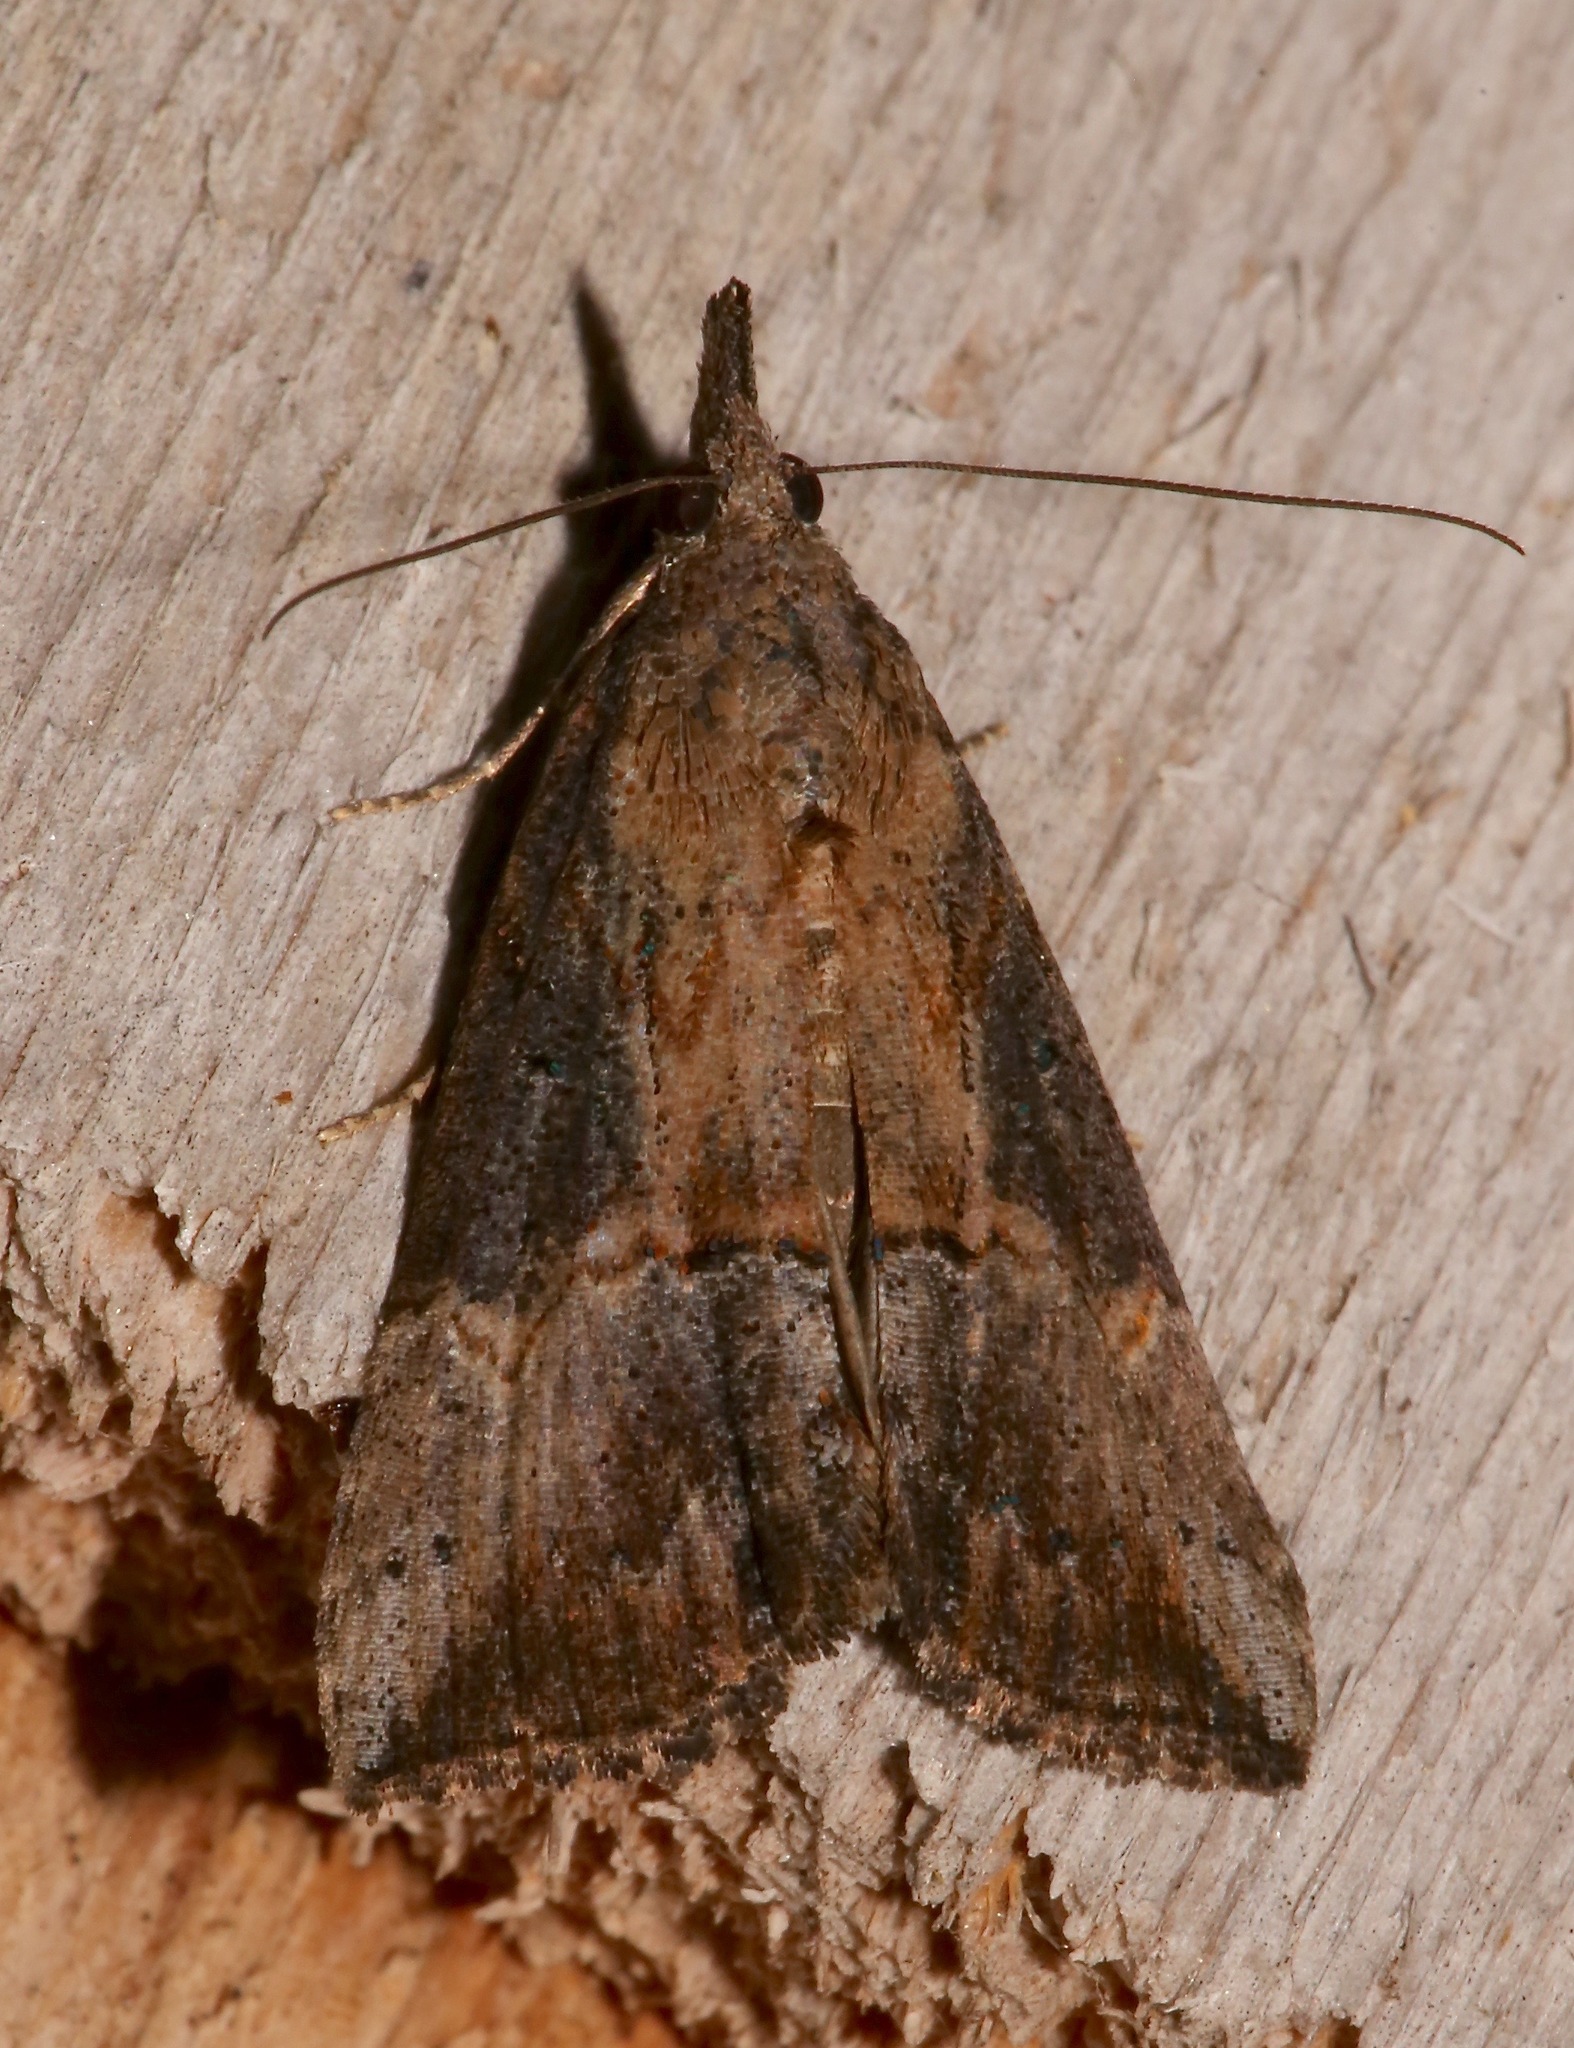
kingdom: Animalia
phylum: Arthropoda
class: Insecta
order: Lepidoptera
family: Erebidae
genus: Hypena
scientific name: Hypena scabra
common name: Green cloverworm
